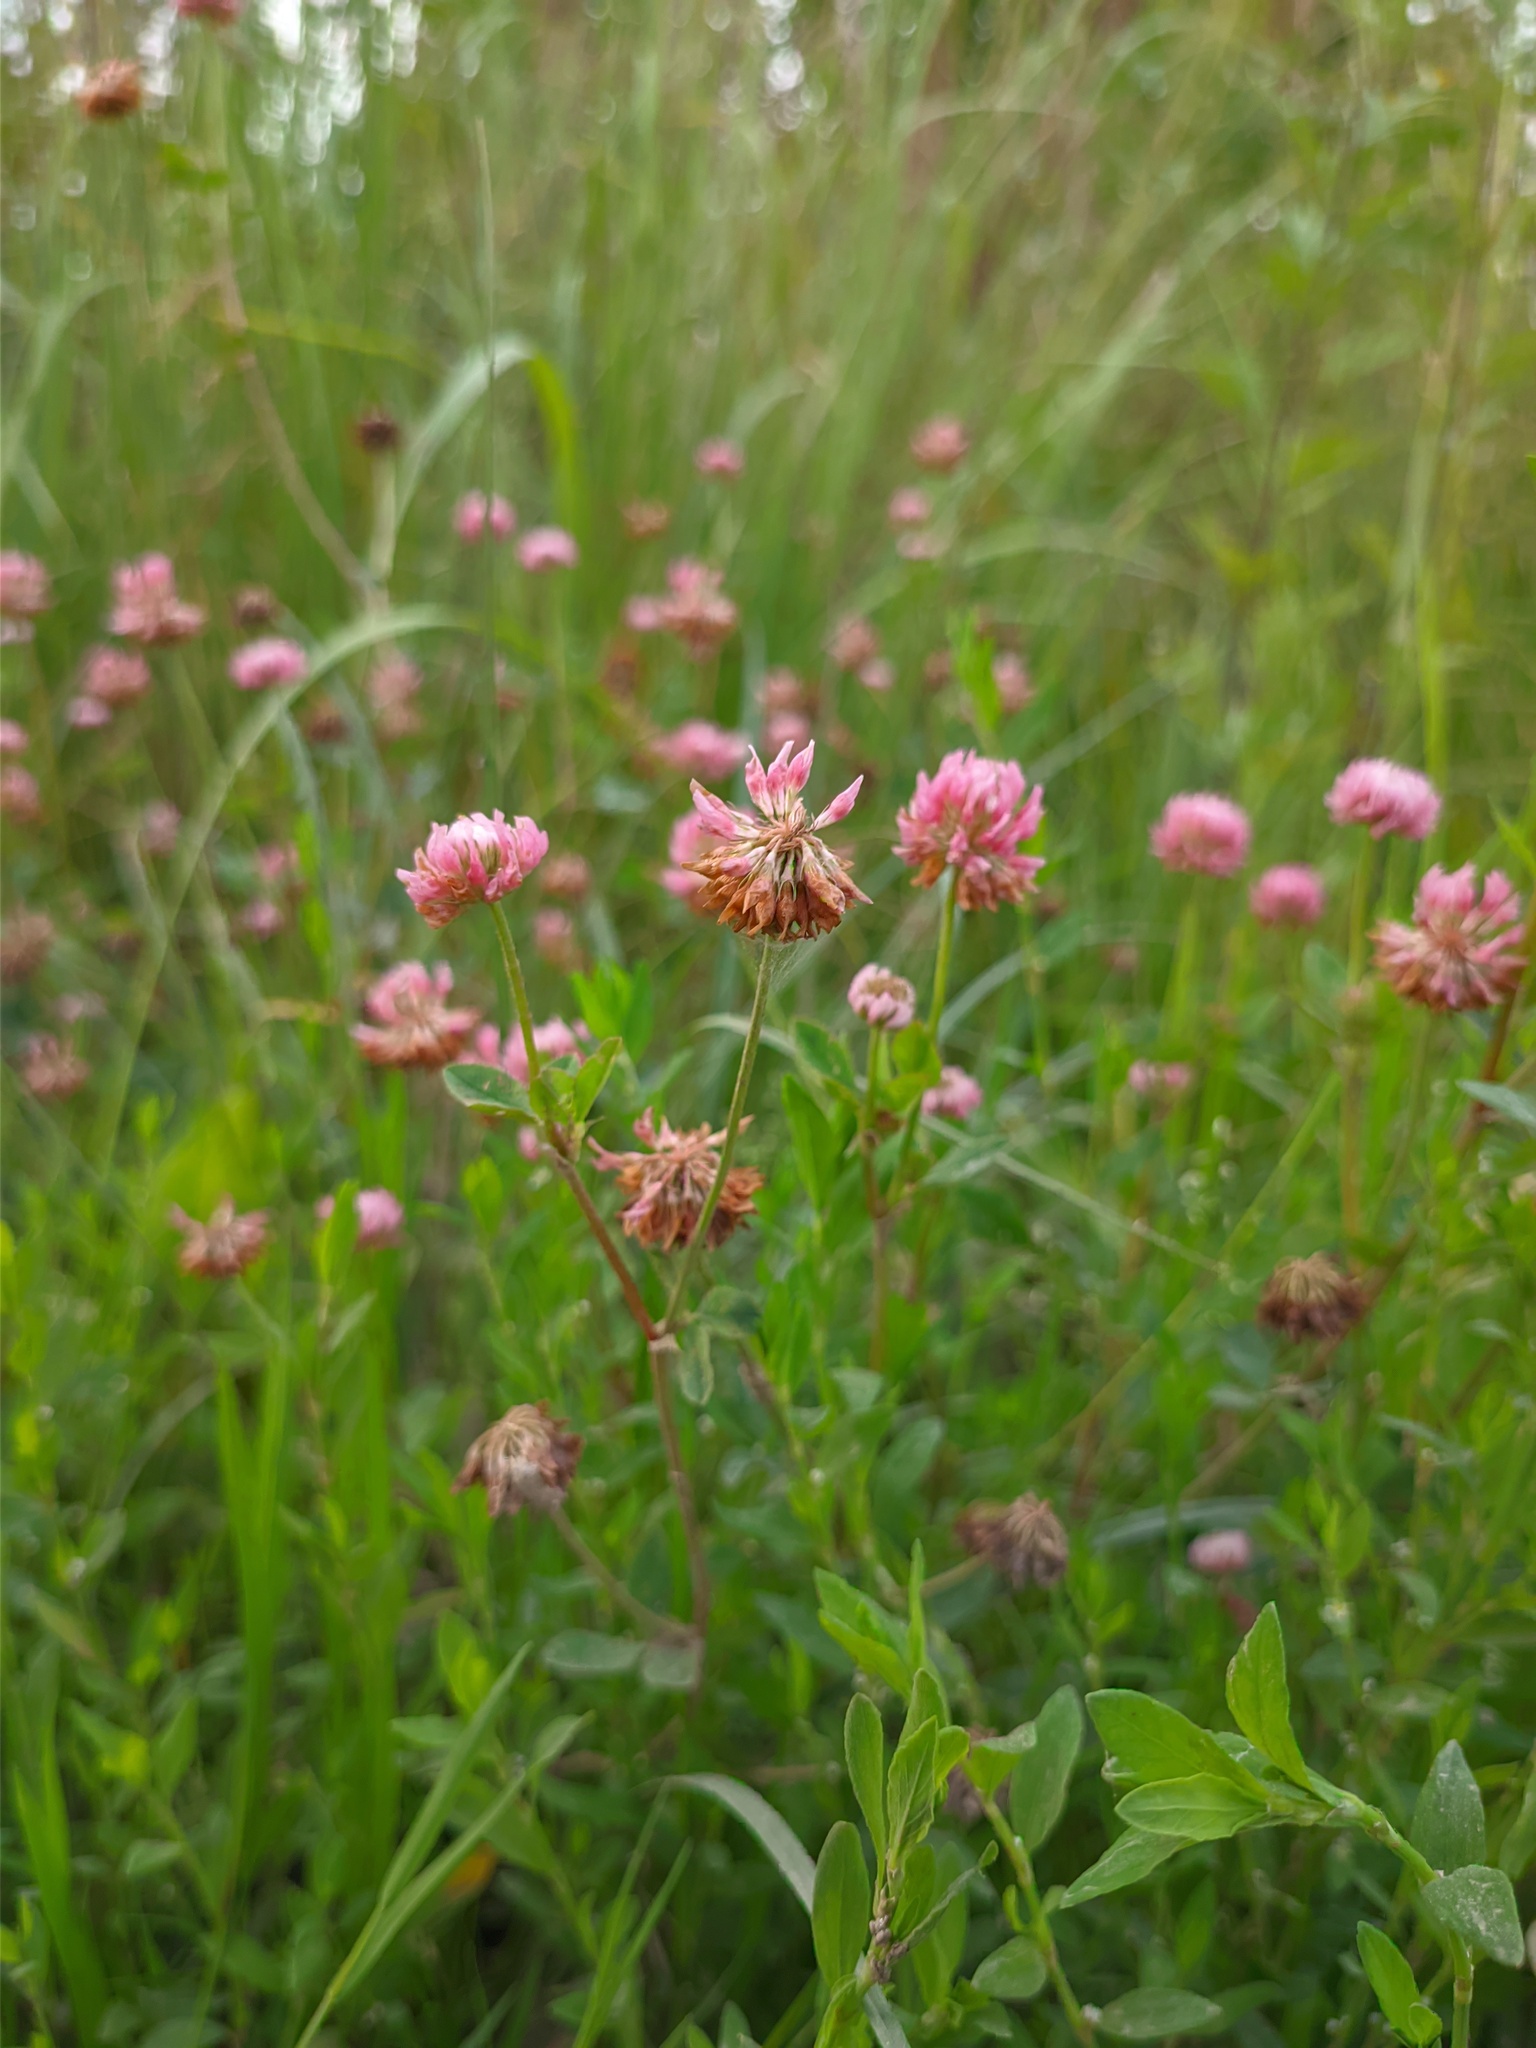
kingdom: Plantae
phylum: Tracheophyta
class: Magnoliopsida
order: Fabales
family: Fabaceae
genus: Trifolium
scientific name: Trifolium hybridum
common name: Alsike clover
